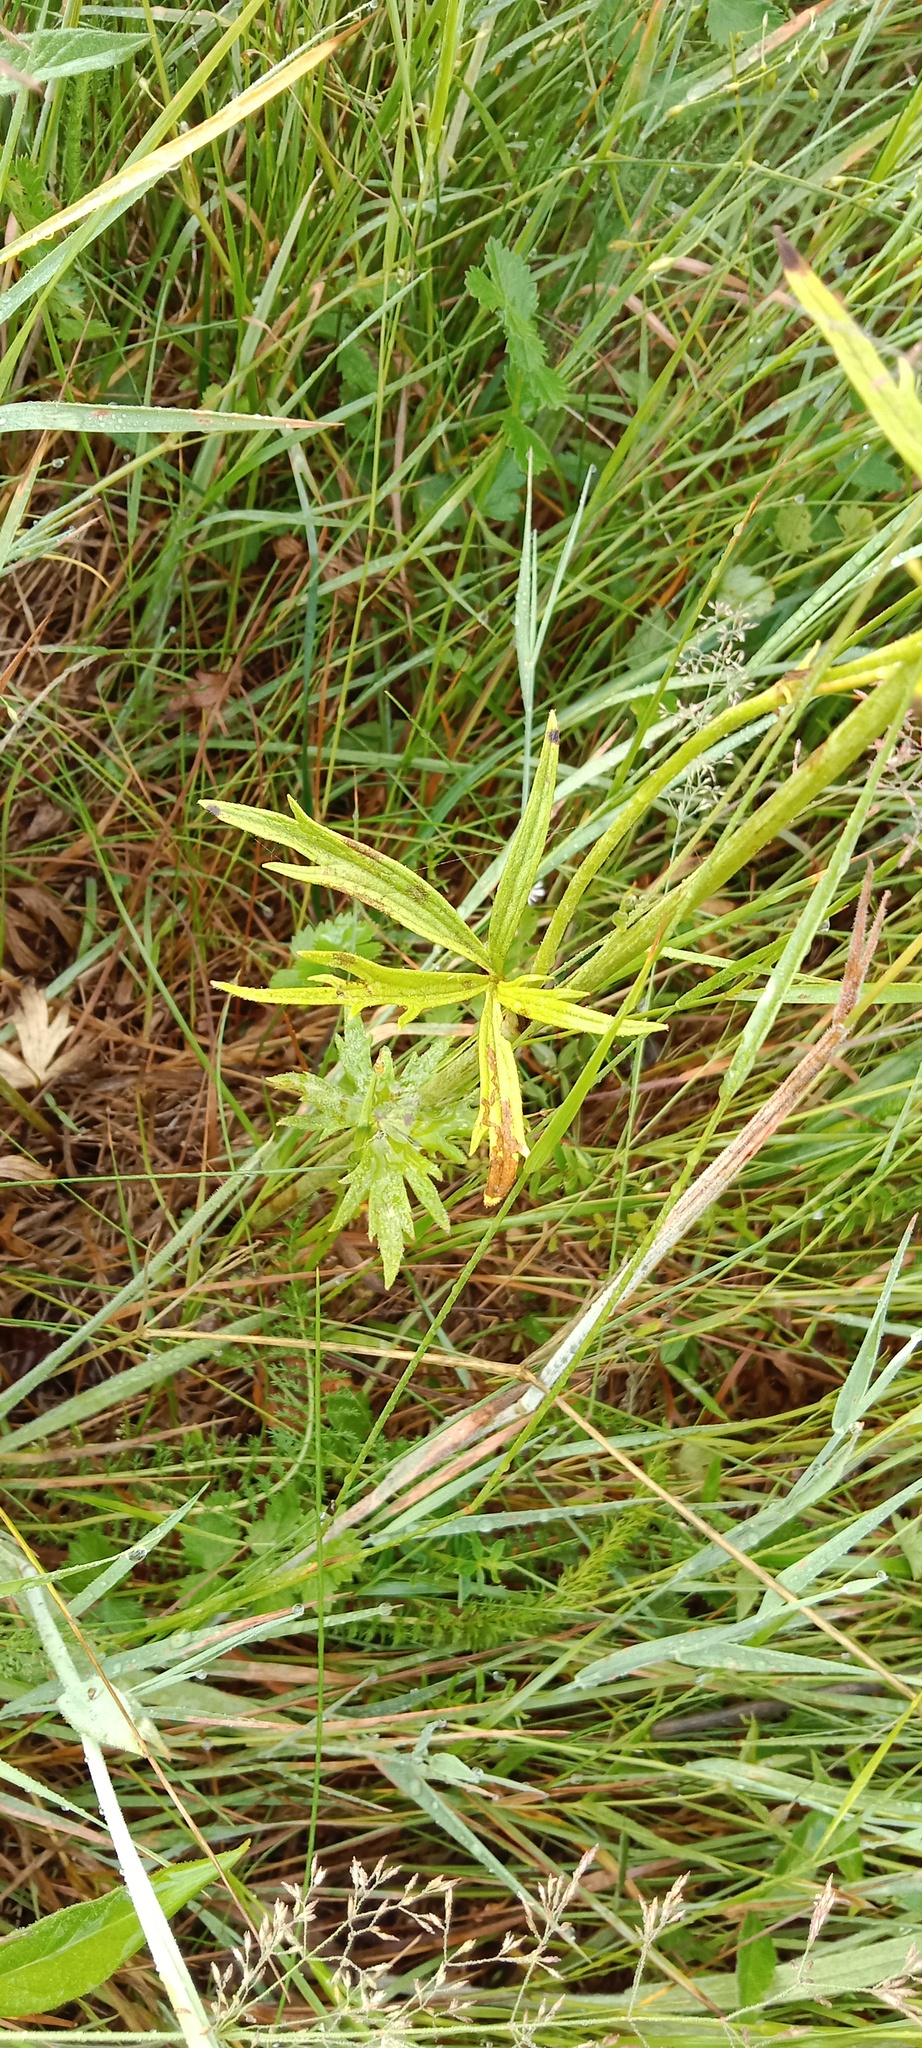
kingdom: Plantae
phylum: Tracheophyta
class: Magnoliopsida
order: Ranunculales
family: Ranunculaceae
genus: Ranunculus
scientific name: Ranunculus acris
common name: Meadow buttercup
